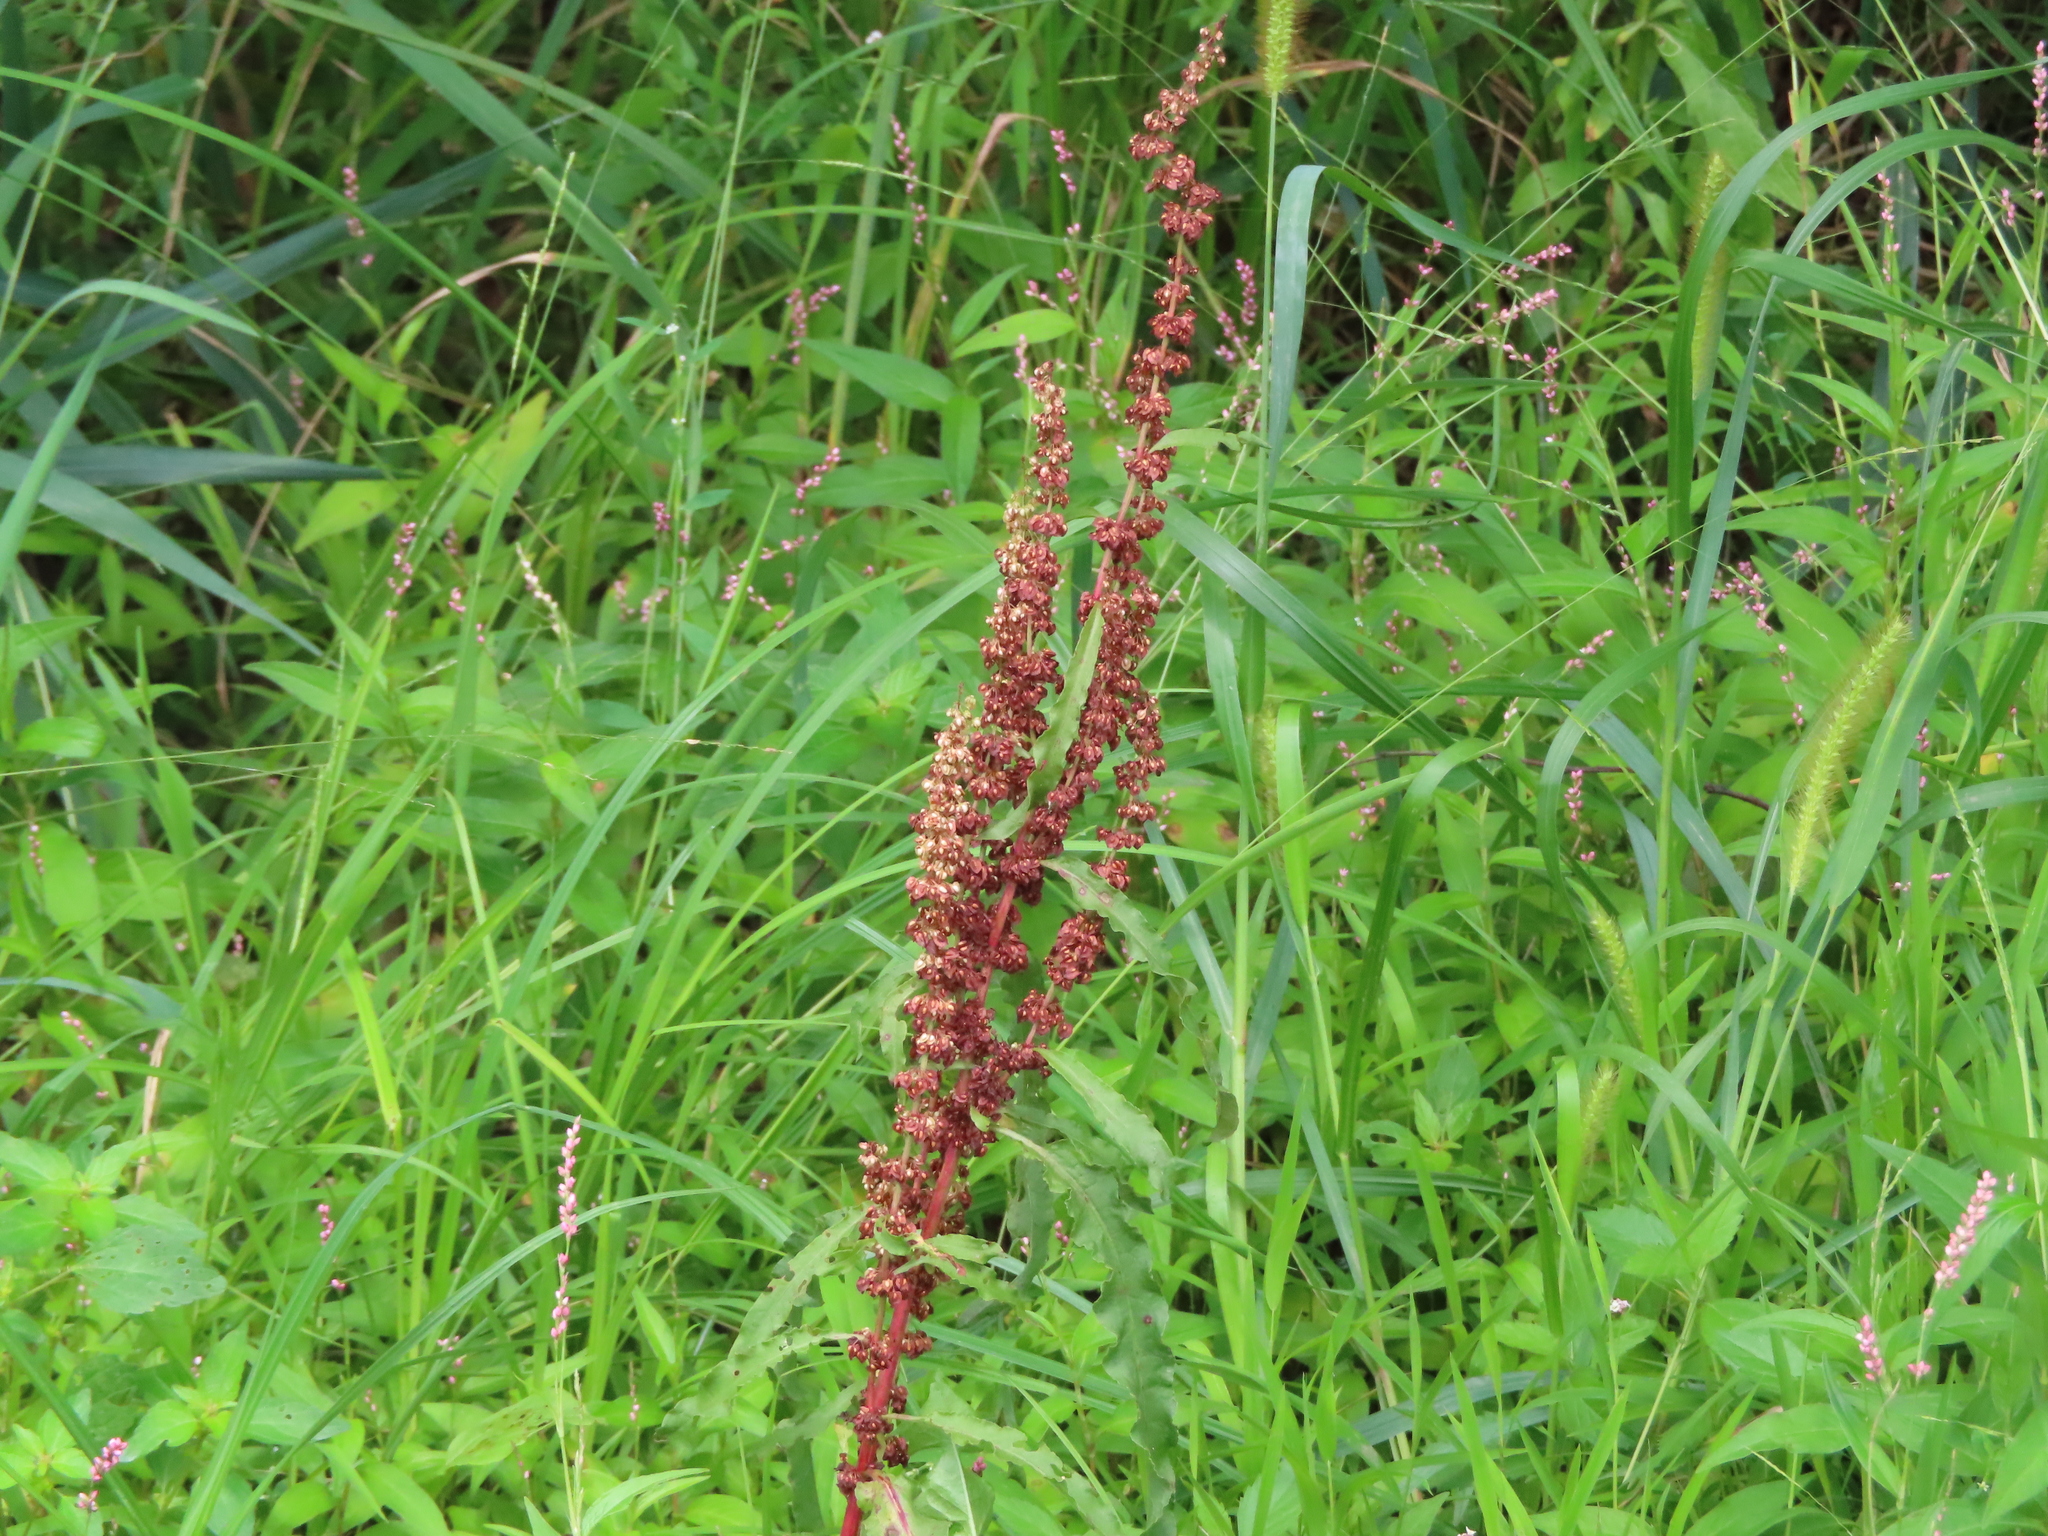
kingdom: Plantae
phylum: Tracheophyta
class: Magnoliopsida
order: Caryophyllales
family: Polygonaceae
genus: Rumex
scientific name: Rumex crispus
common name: Curled dock
